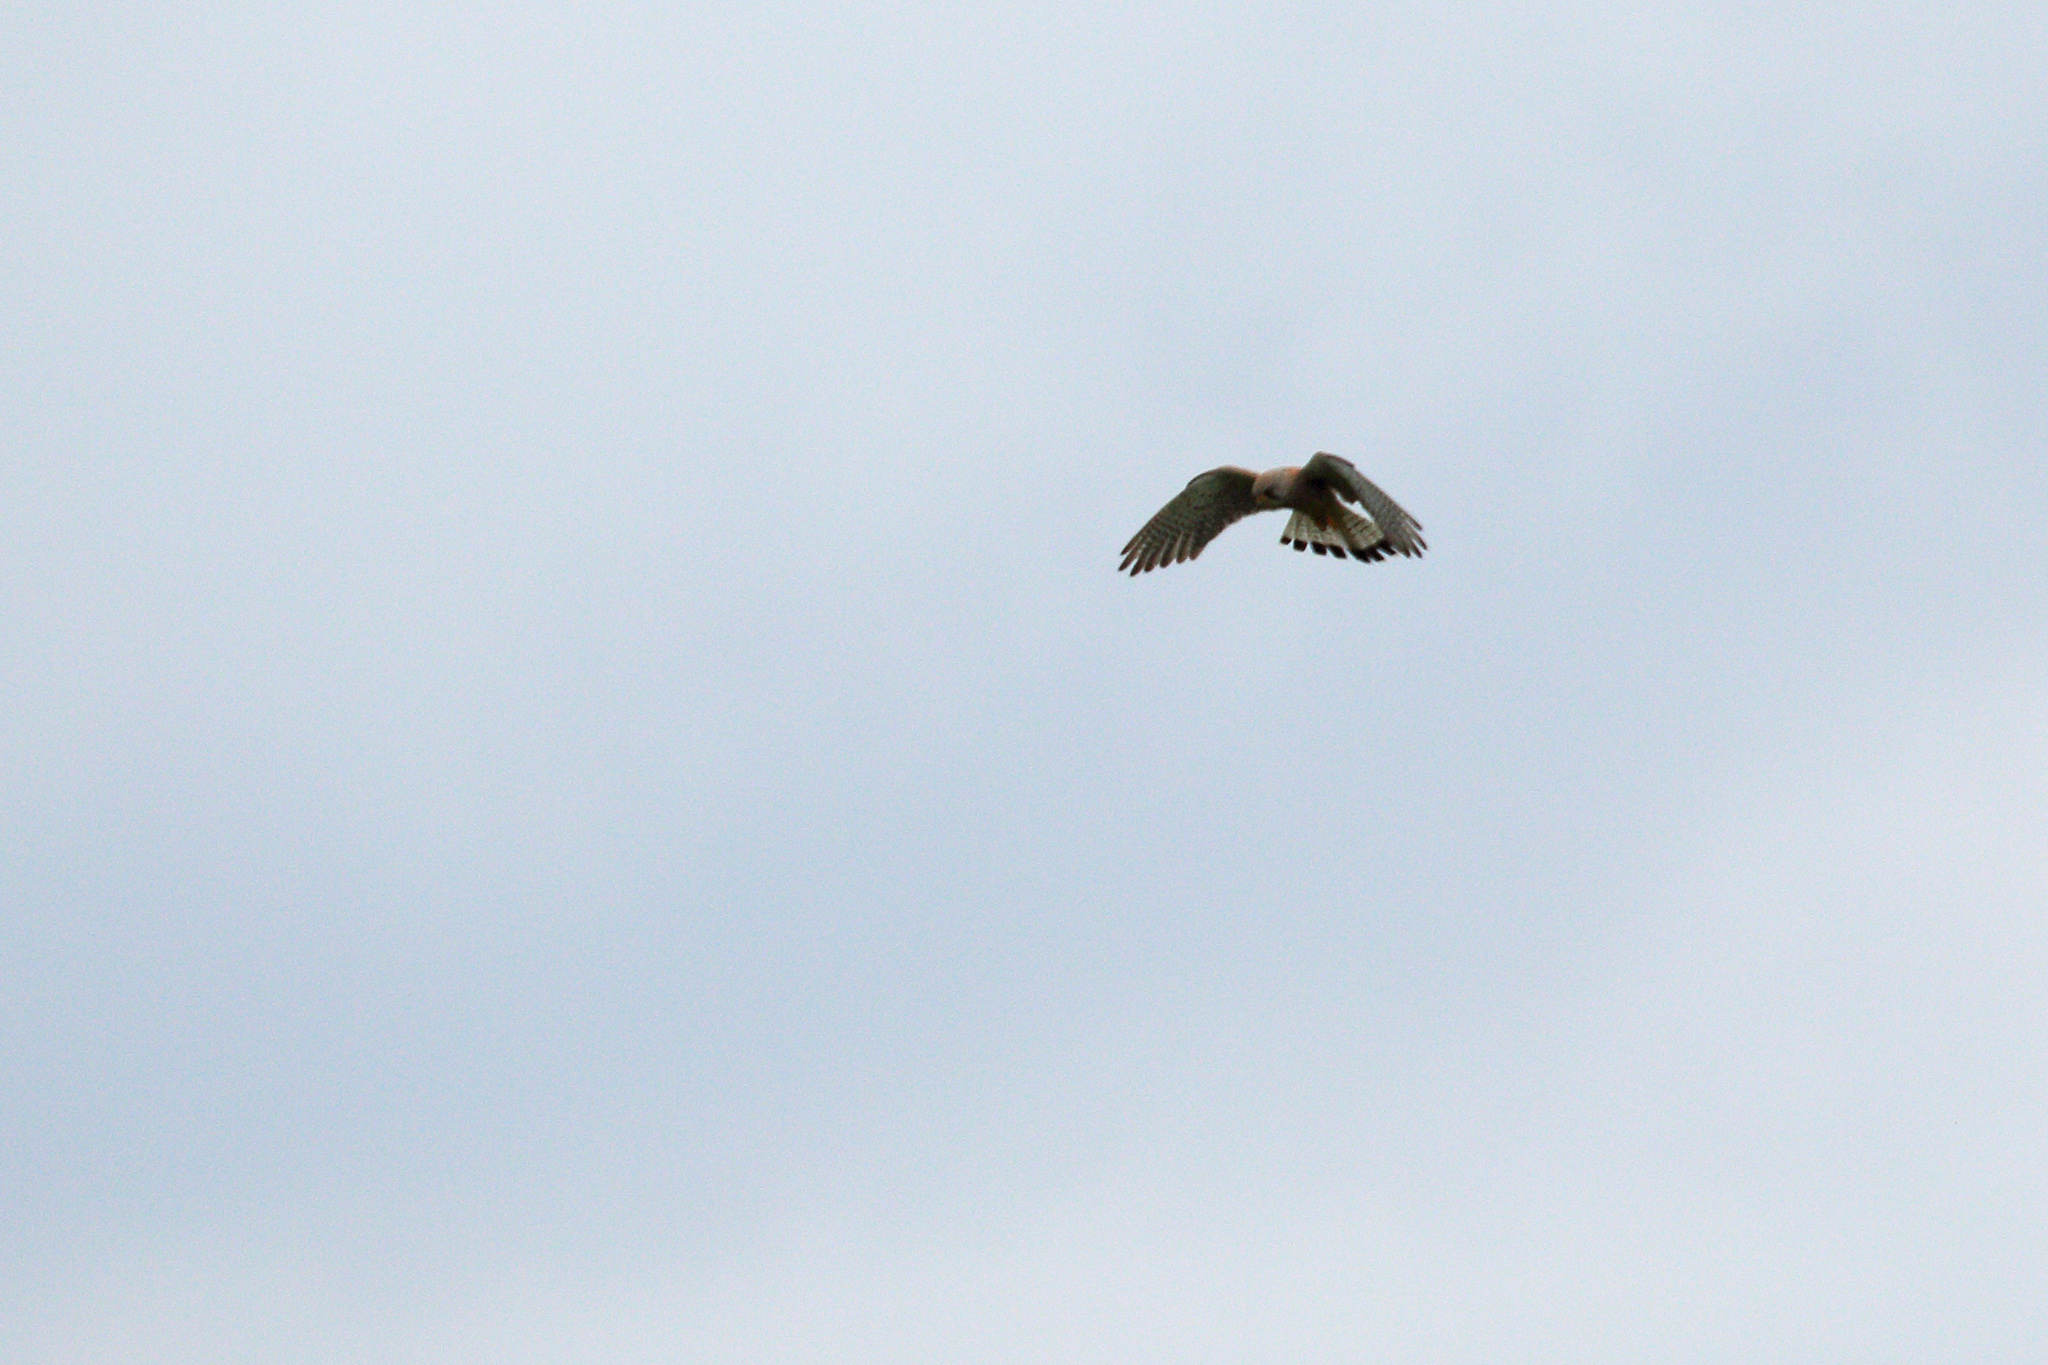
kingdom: Animalia
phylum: Chordata
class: Aves
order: Falconiformes
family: Falconidae
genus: Falco
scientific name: Falco tinnunculus
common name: Common kestrel
